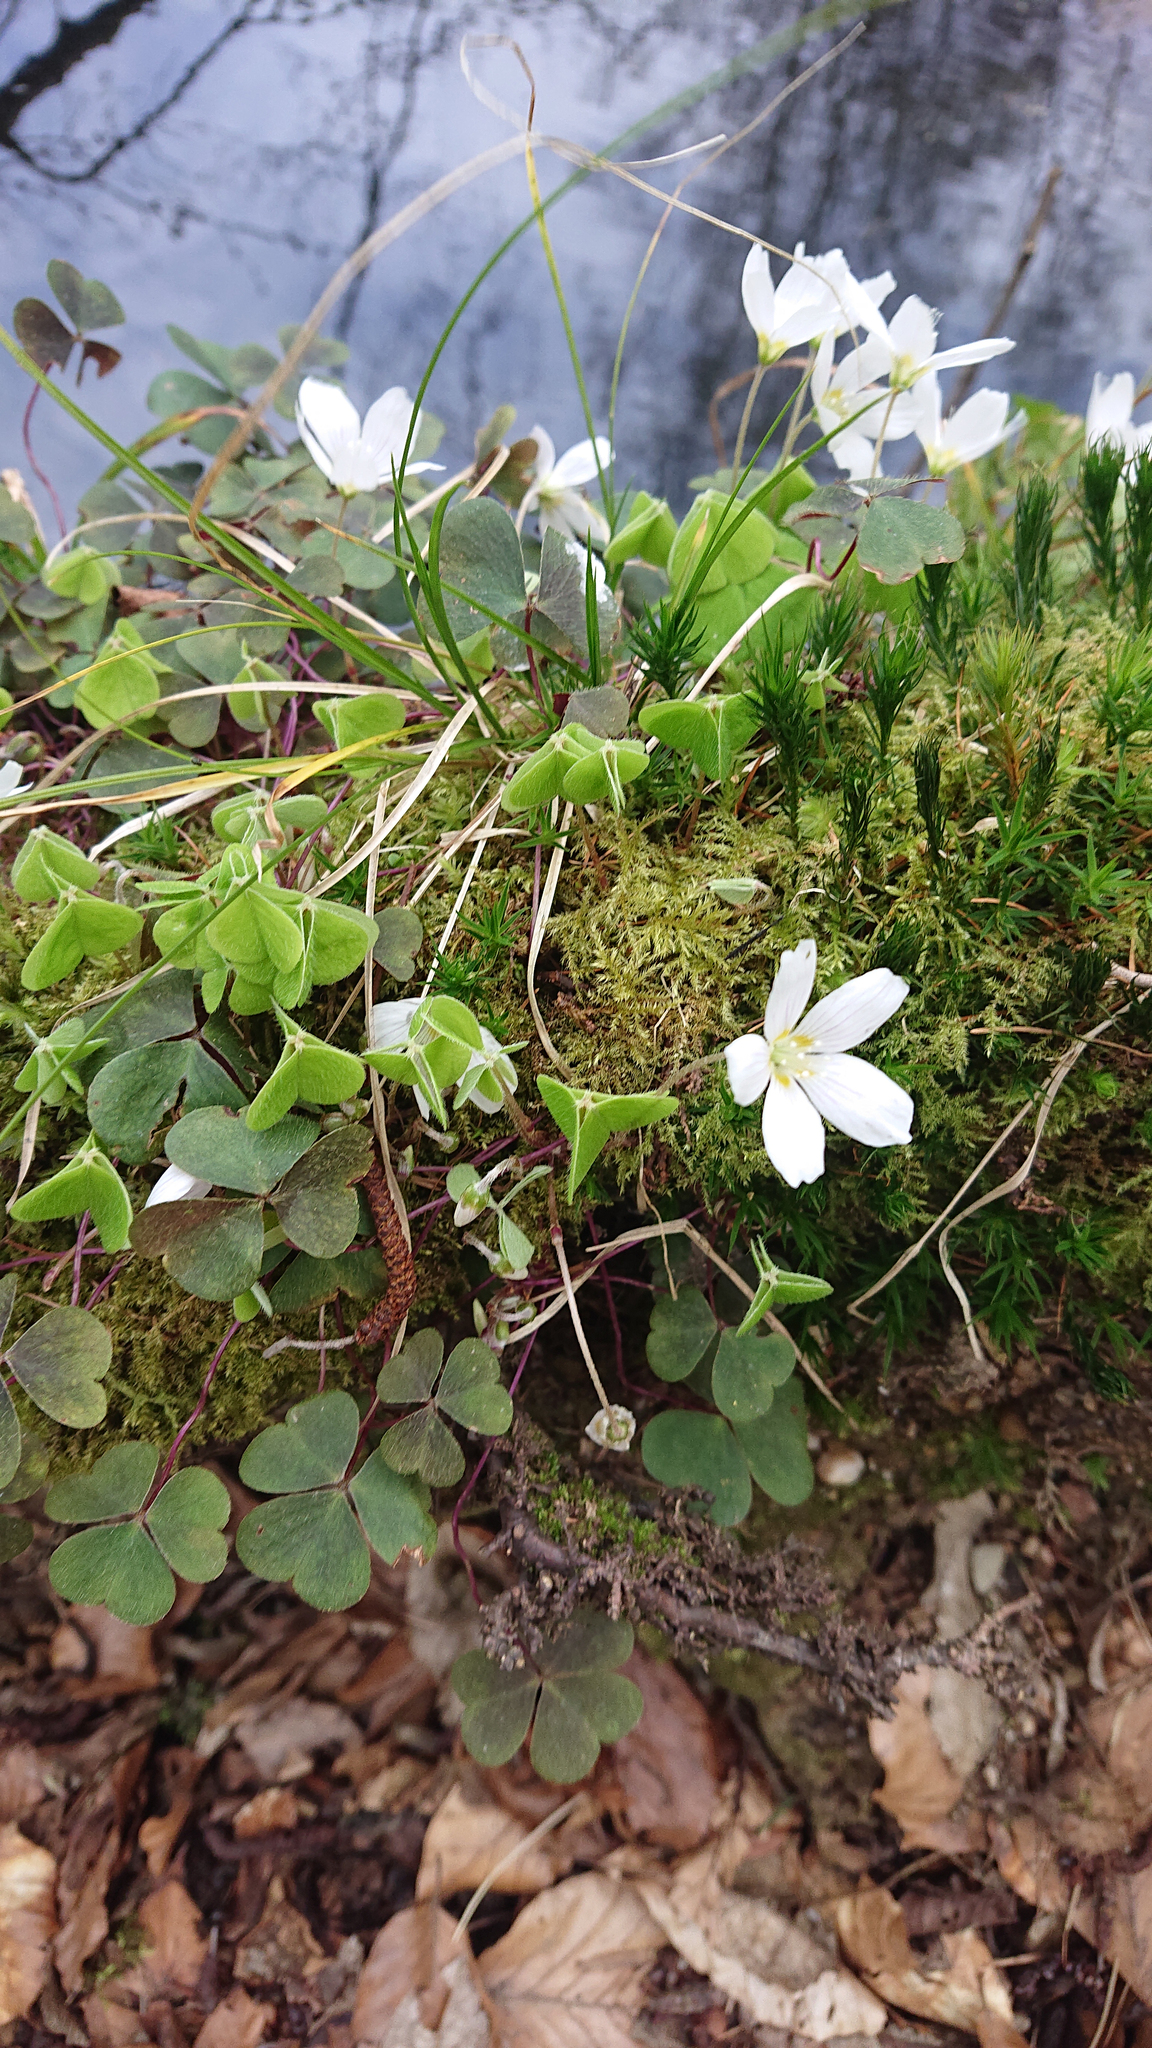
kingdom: Plantae
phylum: Tracheophyta
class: Magnoliopsida
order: Oxalidales
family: Oxalidaceae
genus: Oxalis
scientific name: Oxalis acetosella
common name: Wood-sorrel
